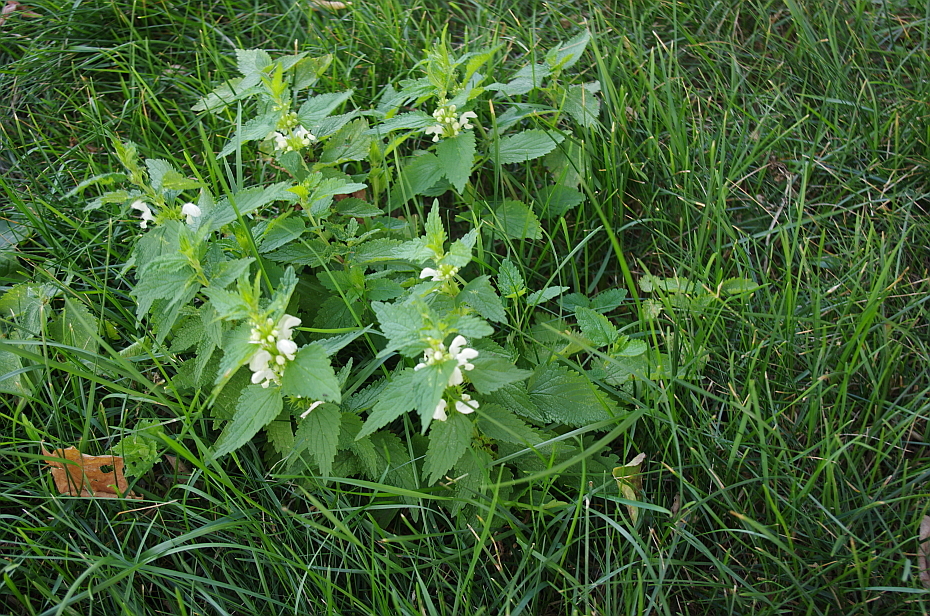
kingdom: Plantae
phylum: Tracheophyta
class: Magnoliopsida
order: Lamiales
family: Lamiaceae
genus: Lamium
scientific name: Lamium album
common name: White dead-nettle
